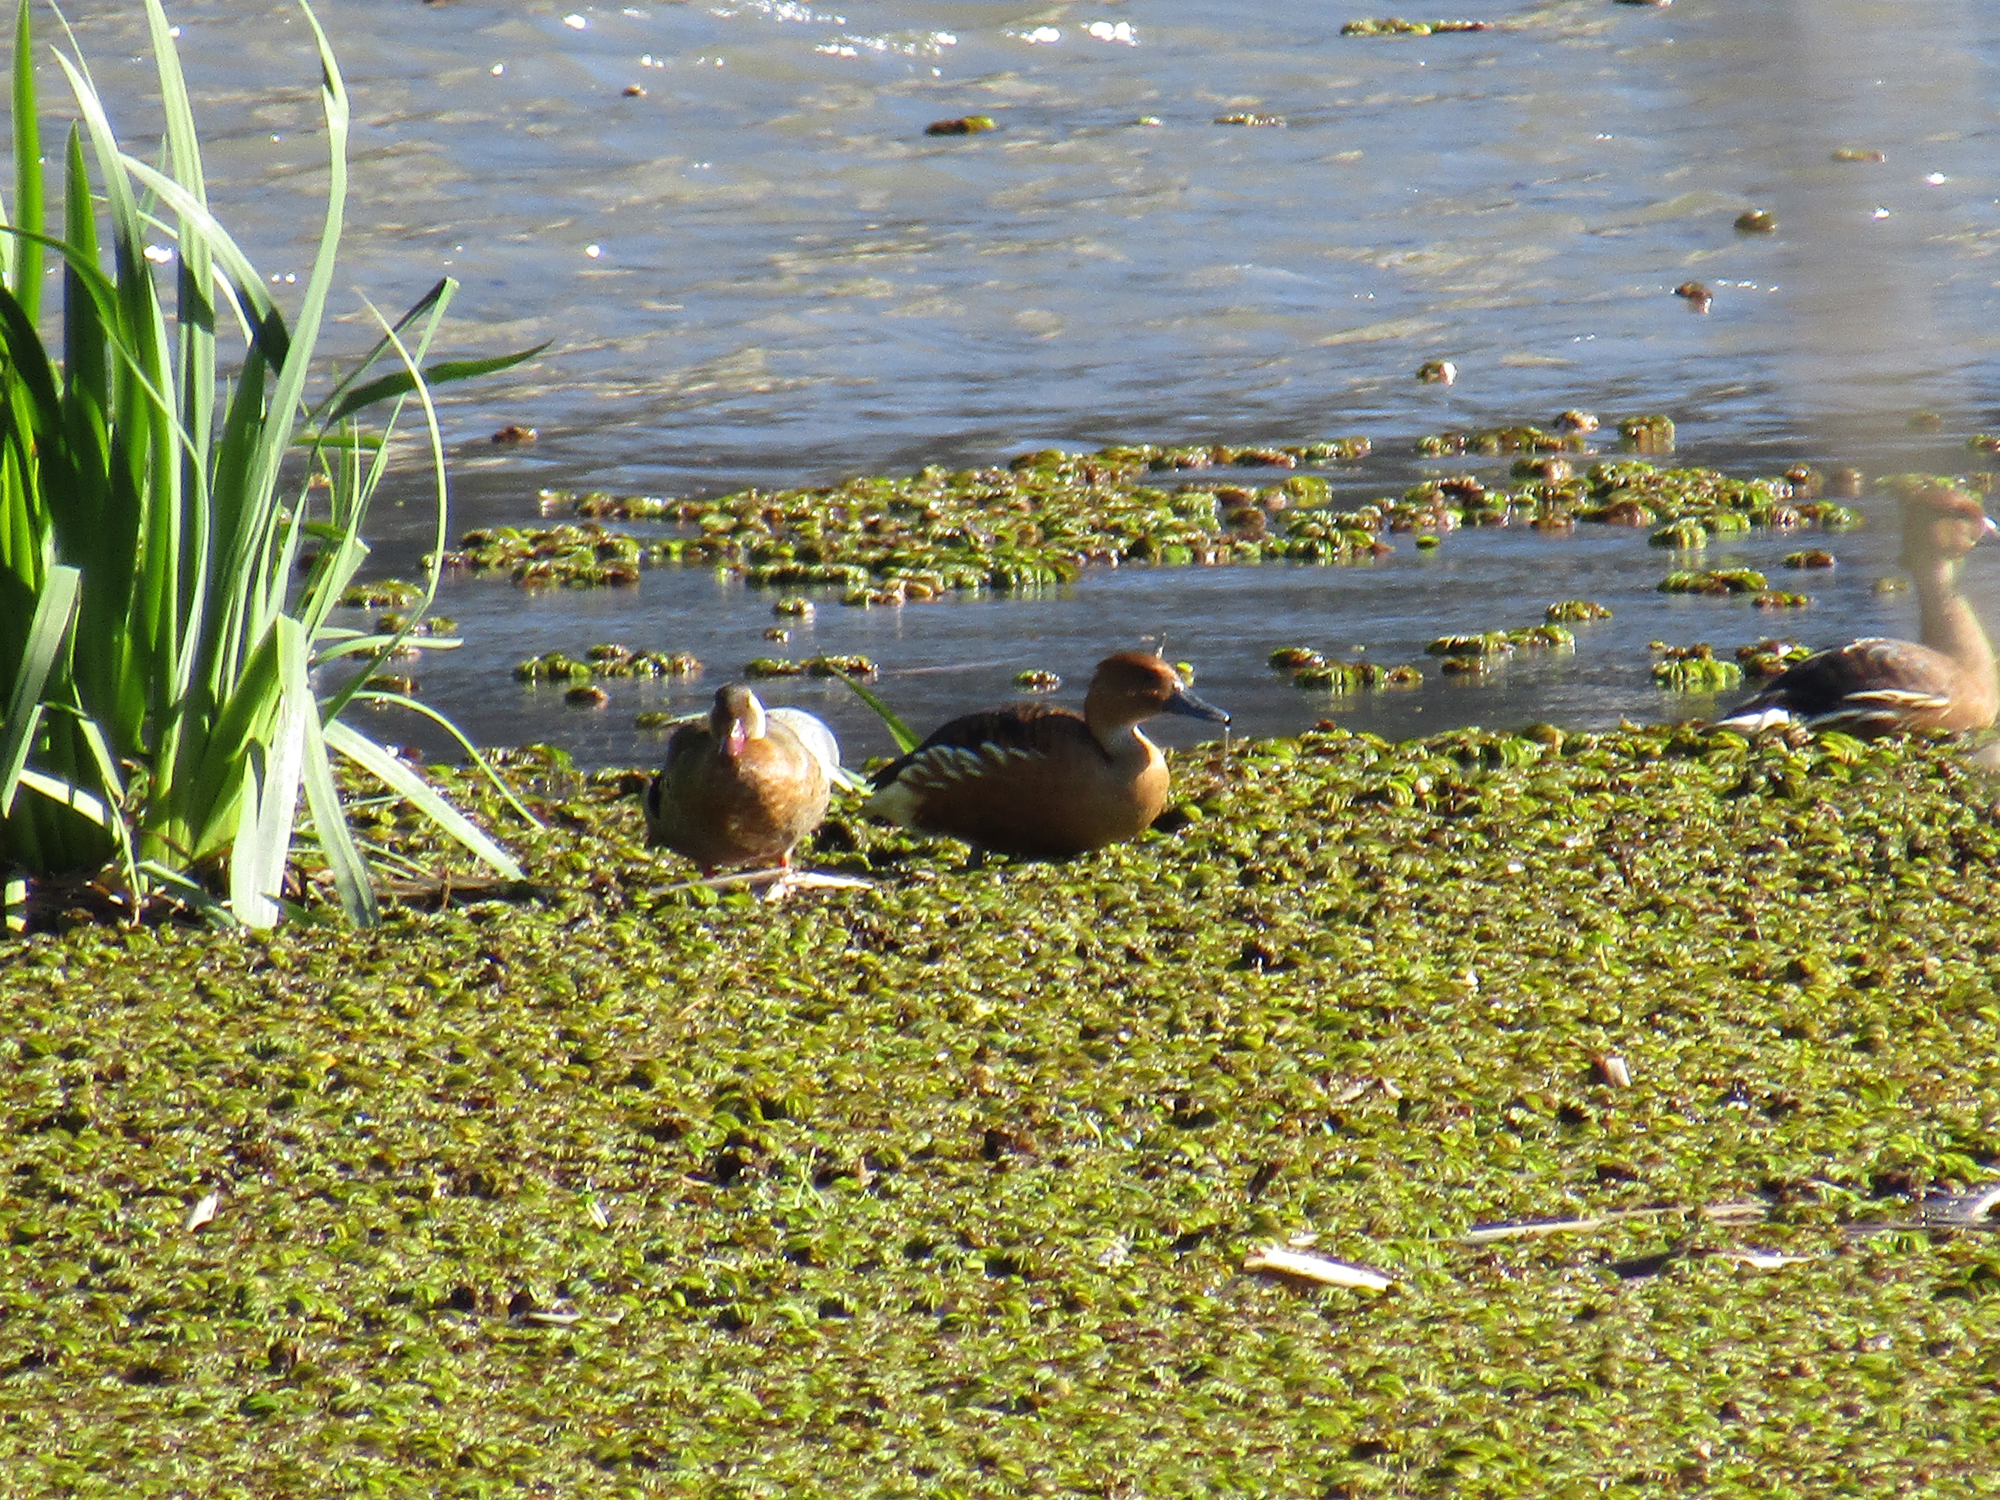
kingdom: Animalia
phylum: Chordata
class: Aves
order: Anseriformes
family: Anatidae
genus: Amazonetta
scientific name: Amazonetta brasiliensis
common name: Brazilian teal
